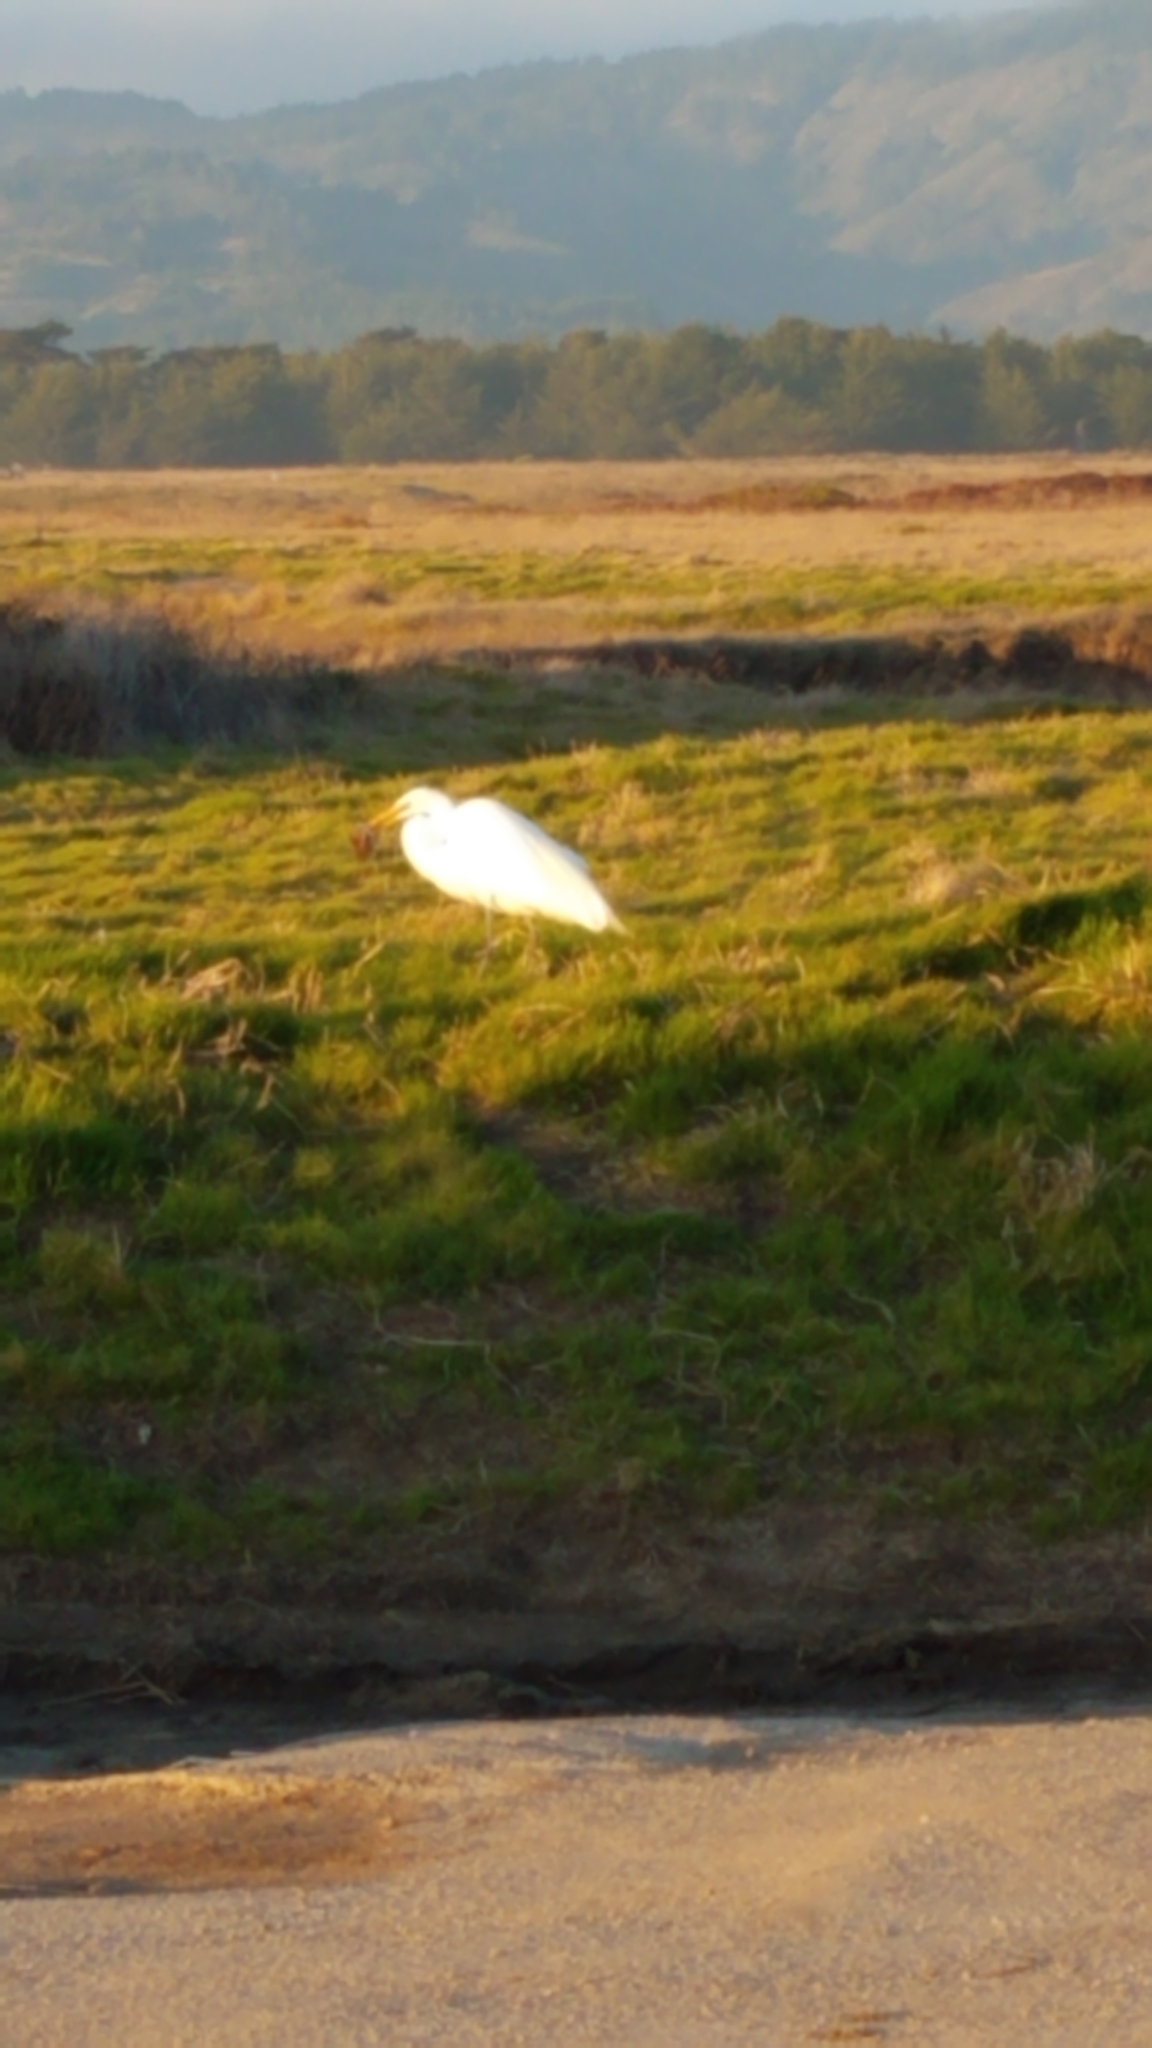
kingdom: Animalia
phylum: Chordata
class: Aves
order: Pelecaniformes
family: Ardeidae
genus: Ardea
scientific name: Ardea alba
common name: Great egret
